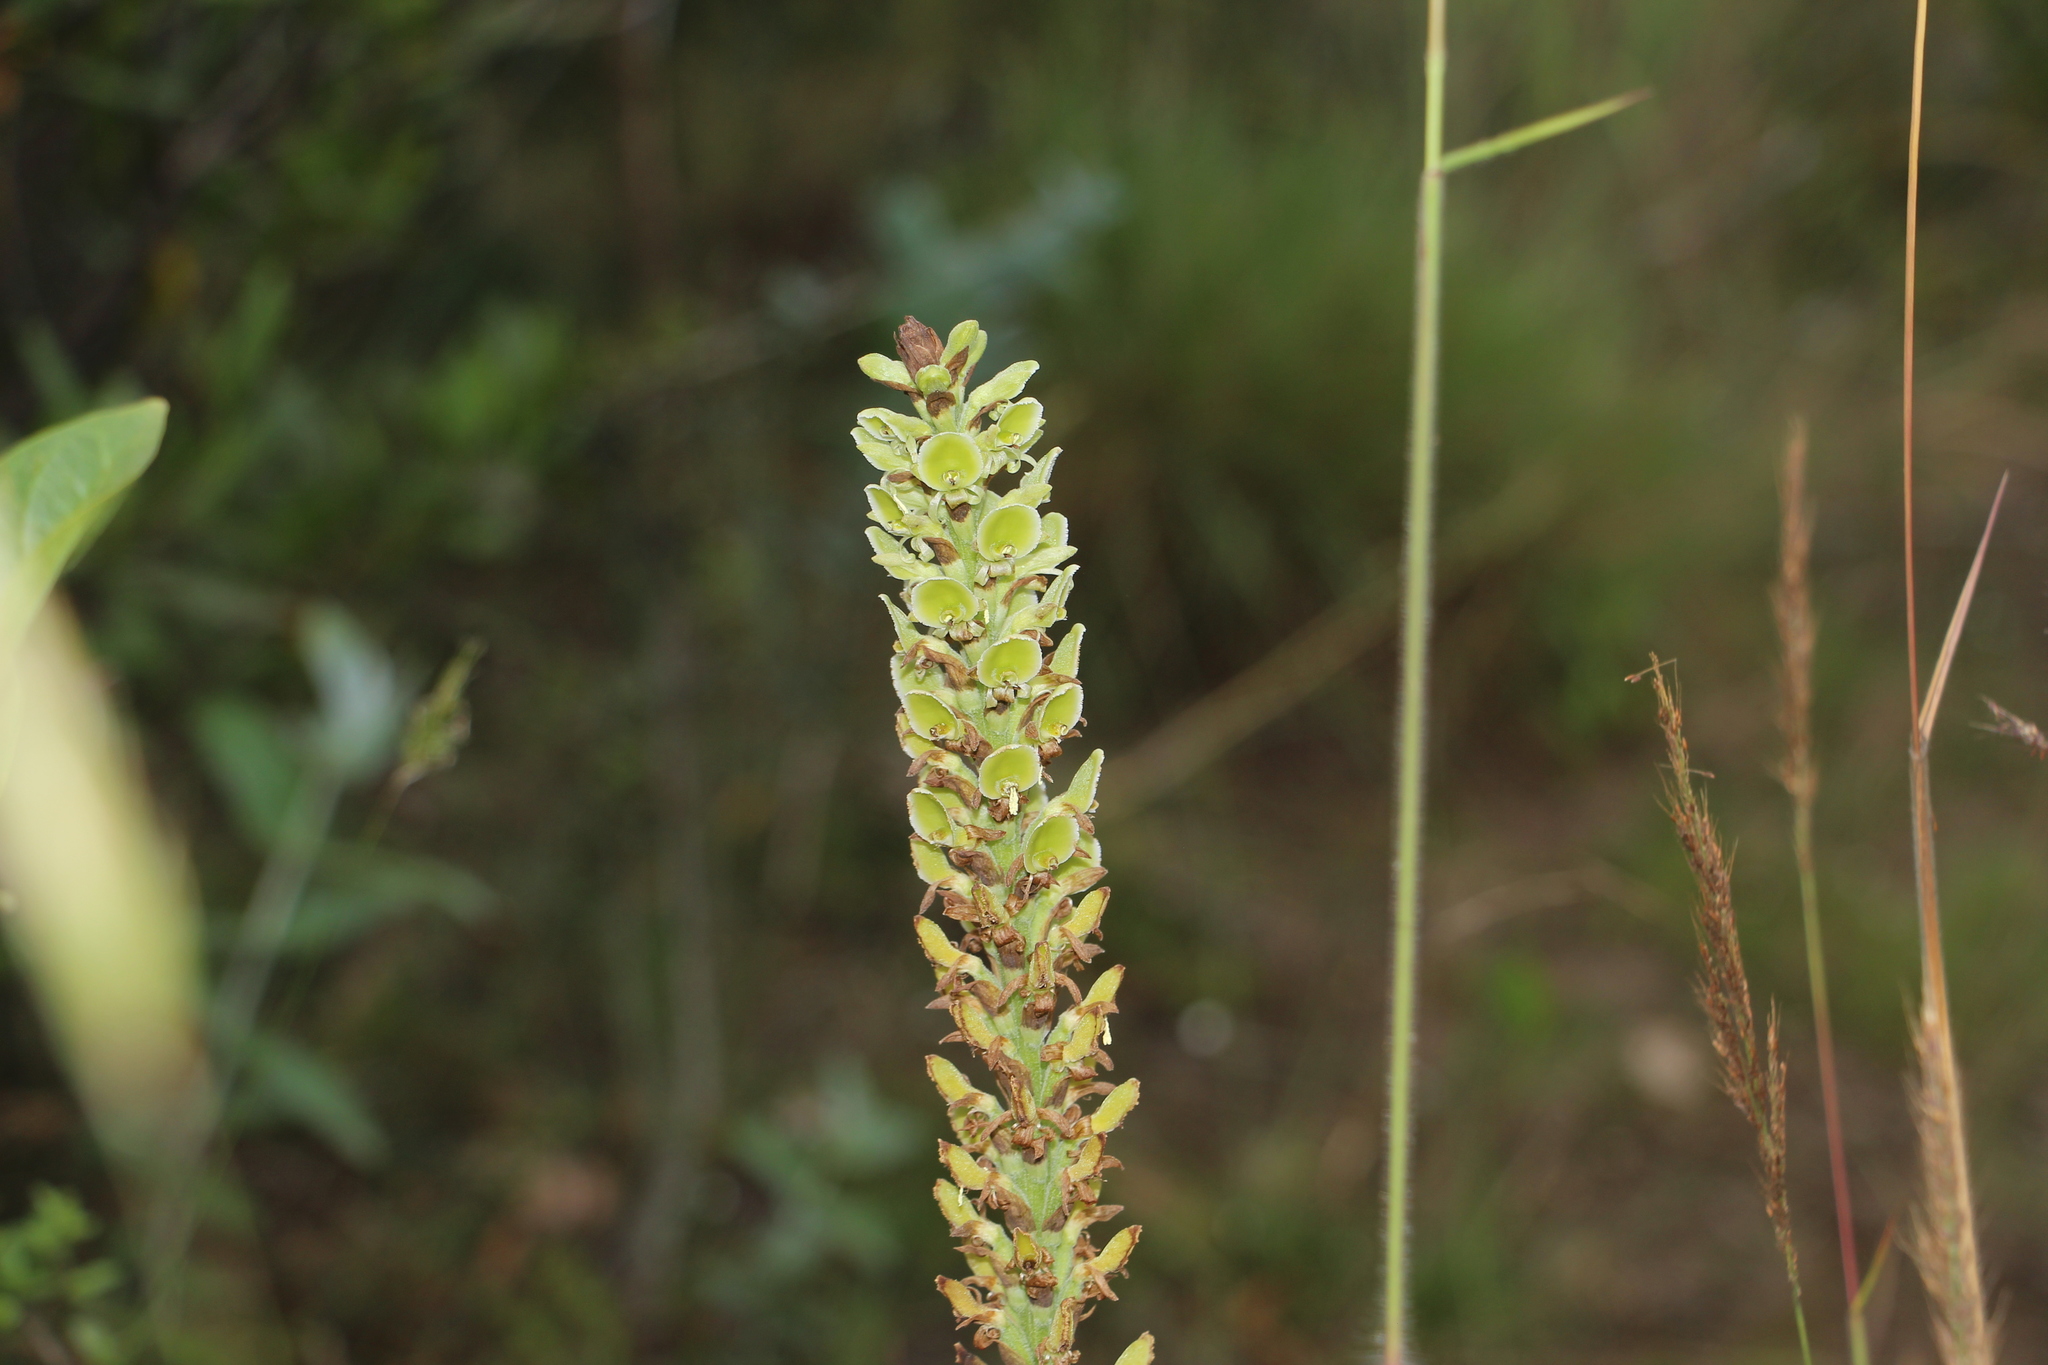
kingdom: Plantae
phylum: Tracheophyta
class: Liliopsida
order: Asparagales
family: Orchidaceae
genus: Altensteinia
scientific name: Altensteinia fimbriata
